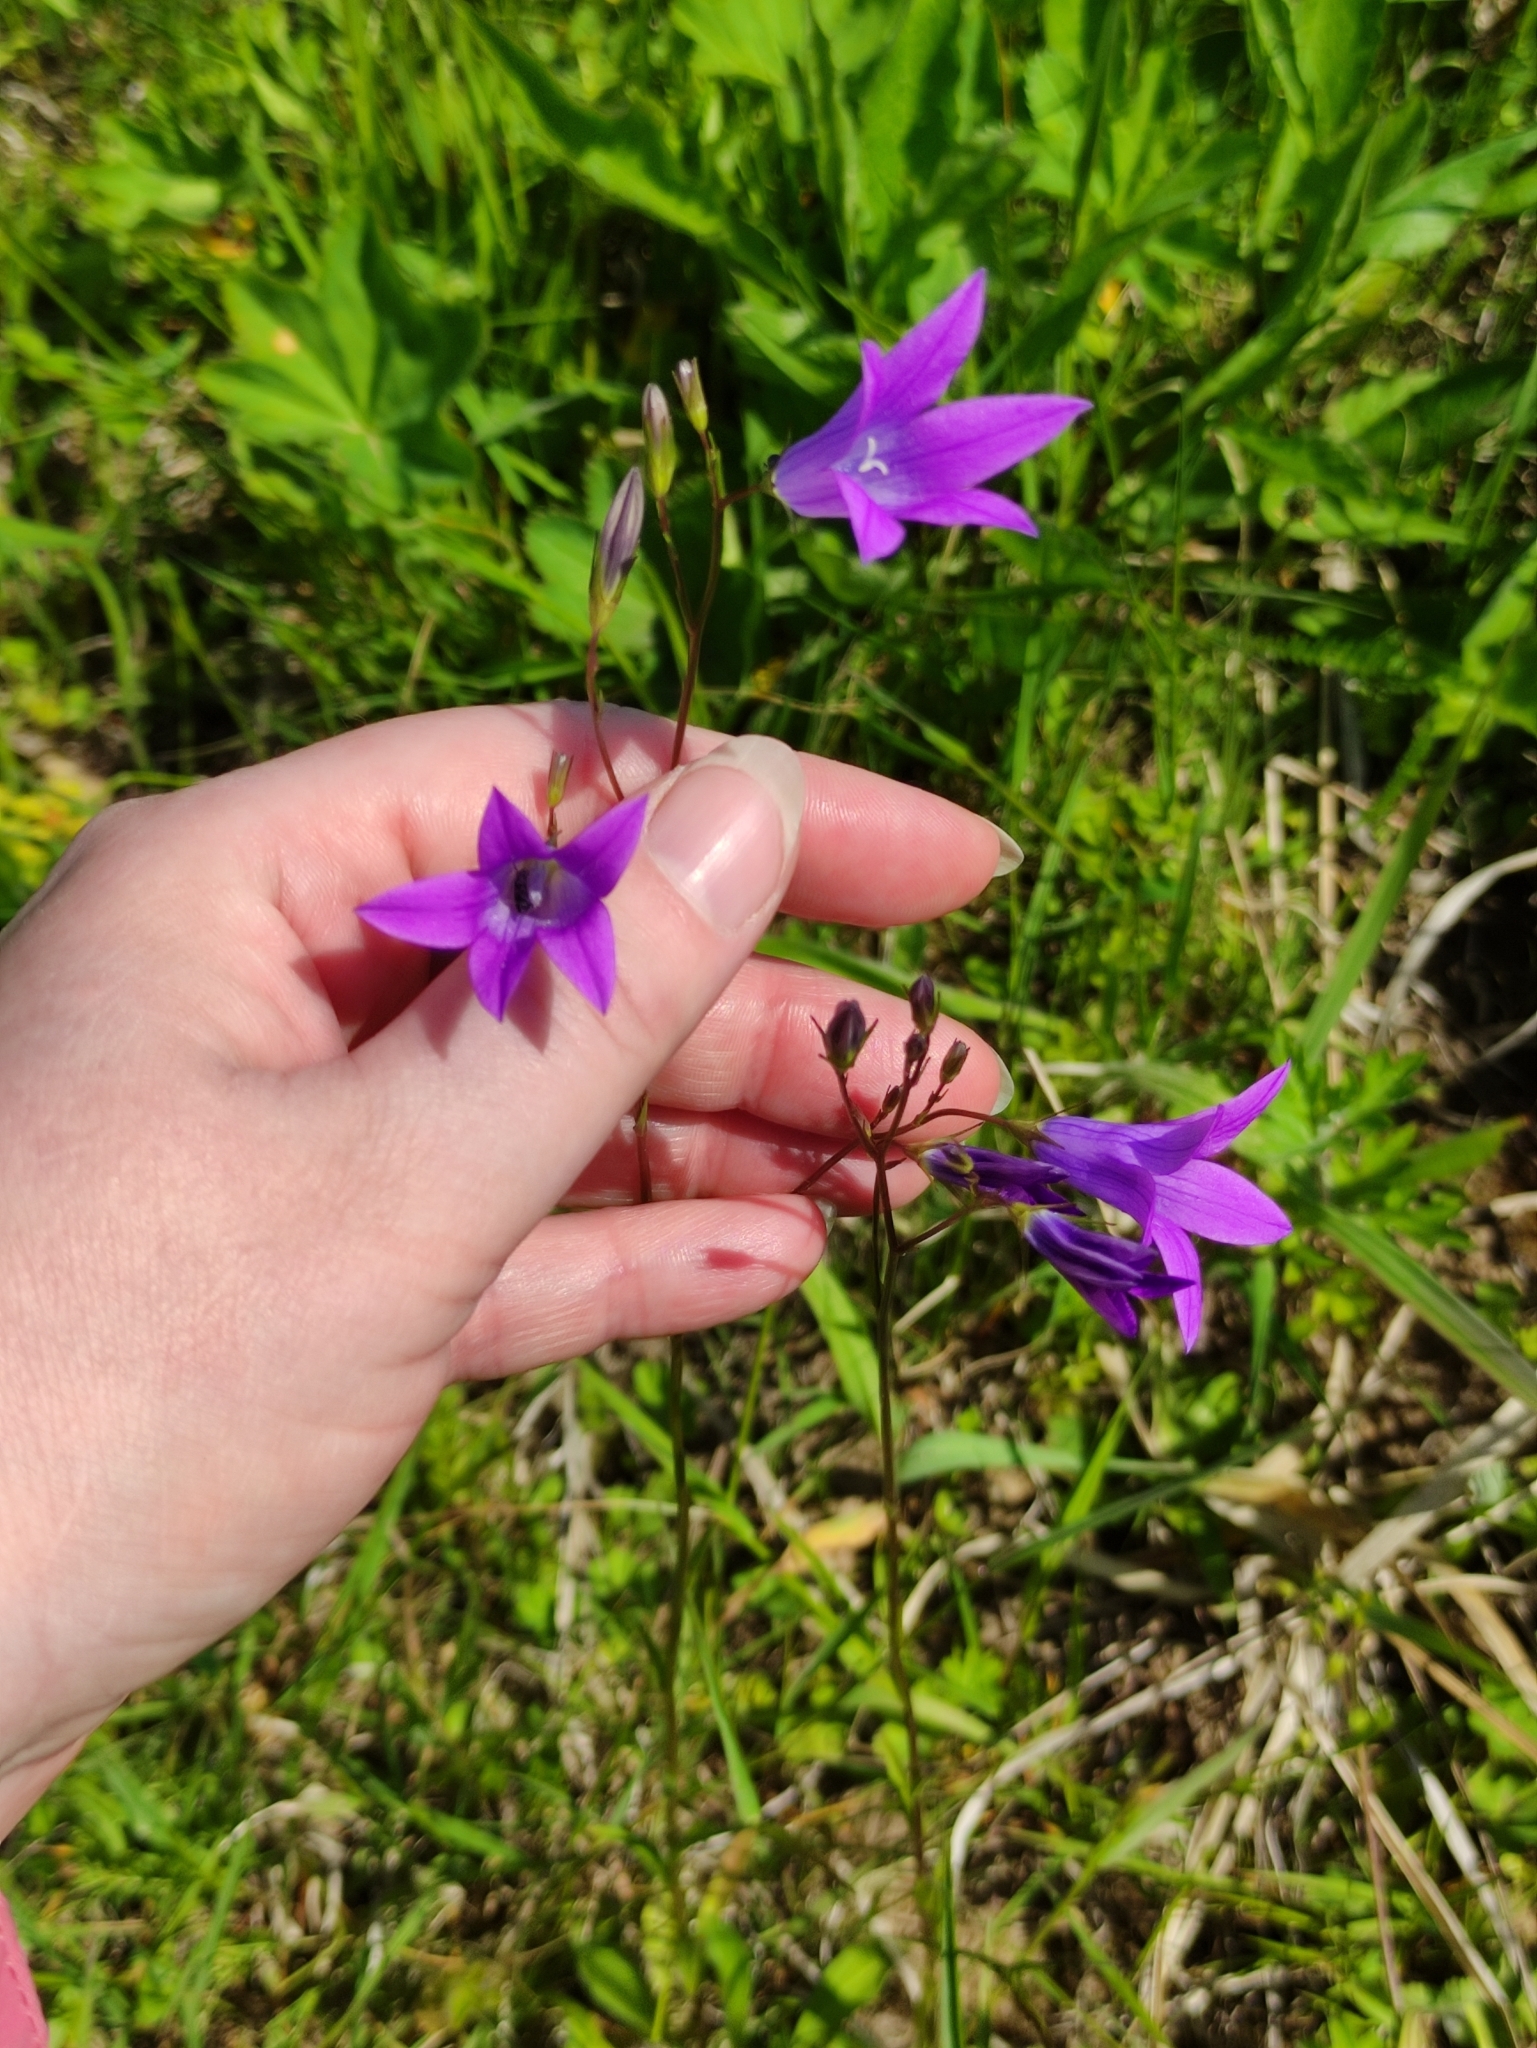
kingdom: Plantae
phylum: Tracheophyta
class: Magnoliopsida
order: Asterales
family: Campanulaceae
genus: Campanula
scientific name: Campanula patula
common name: Spreading bellflower
